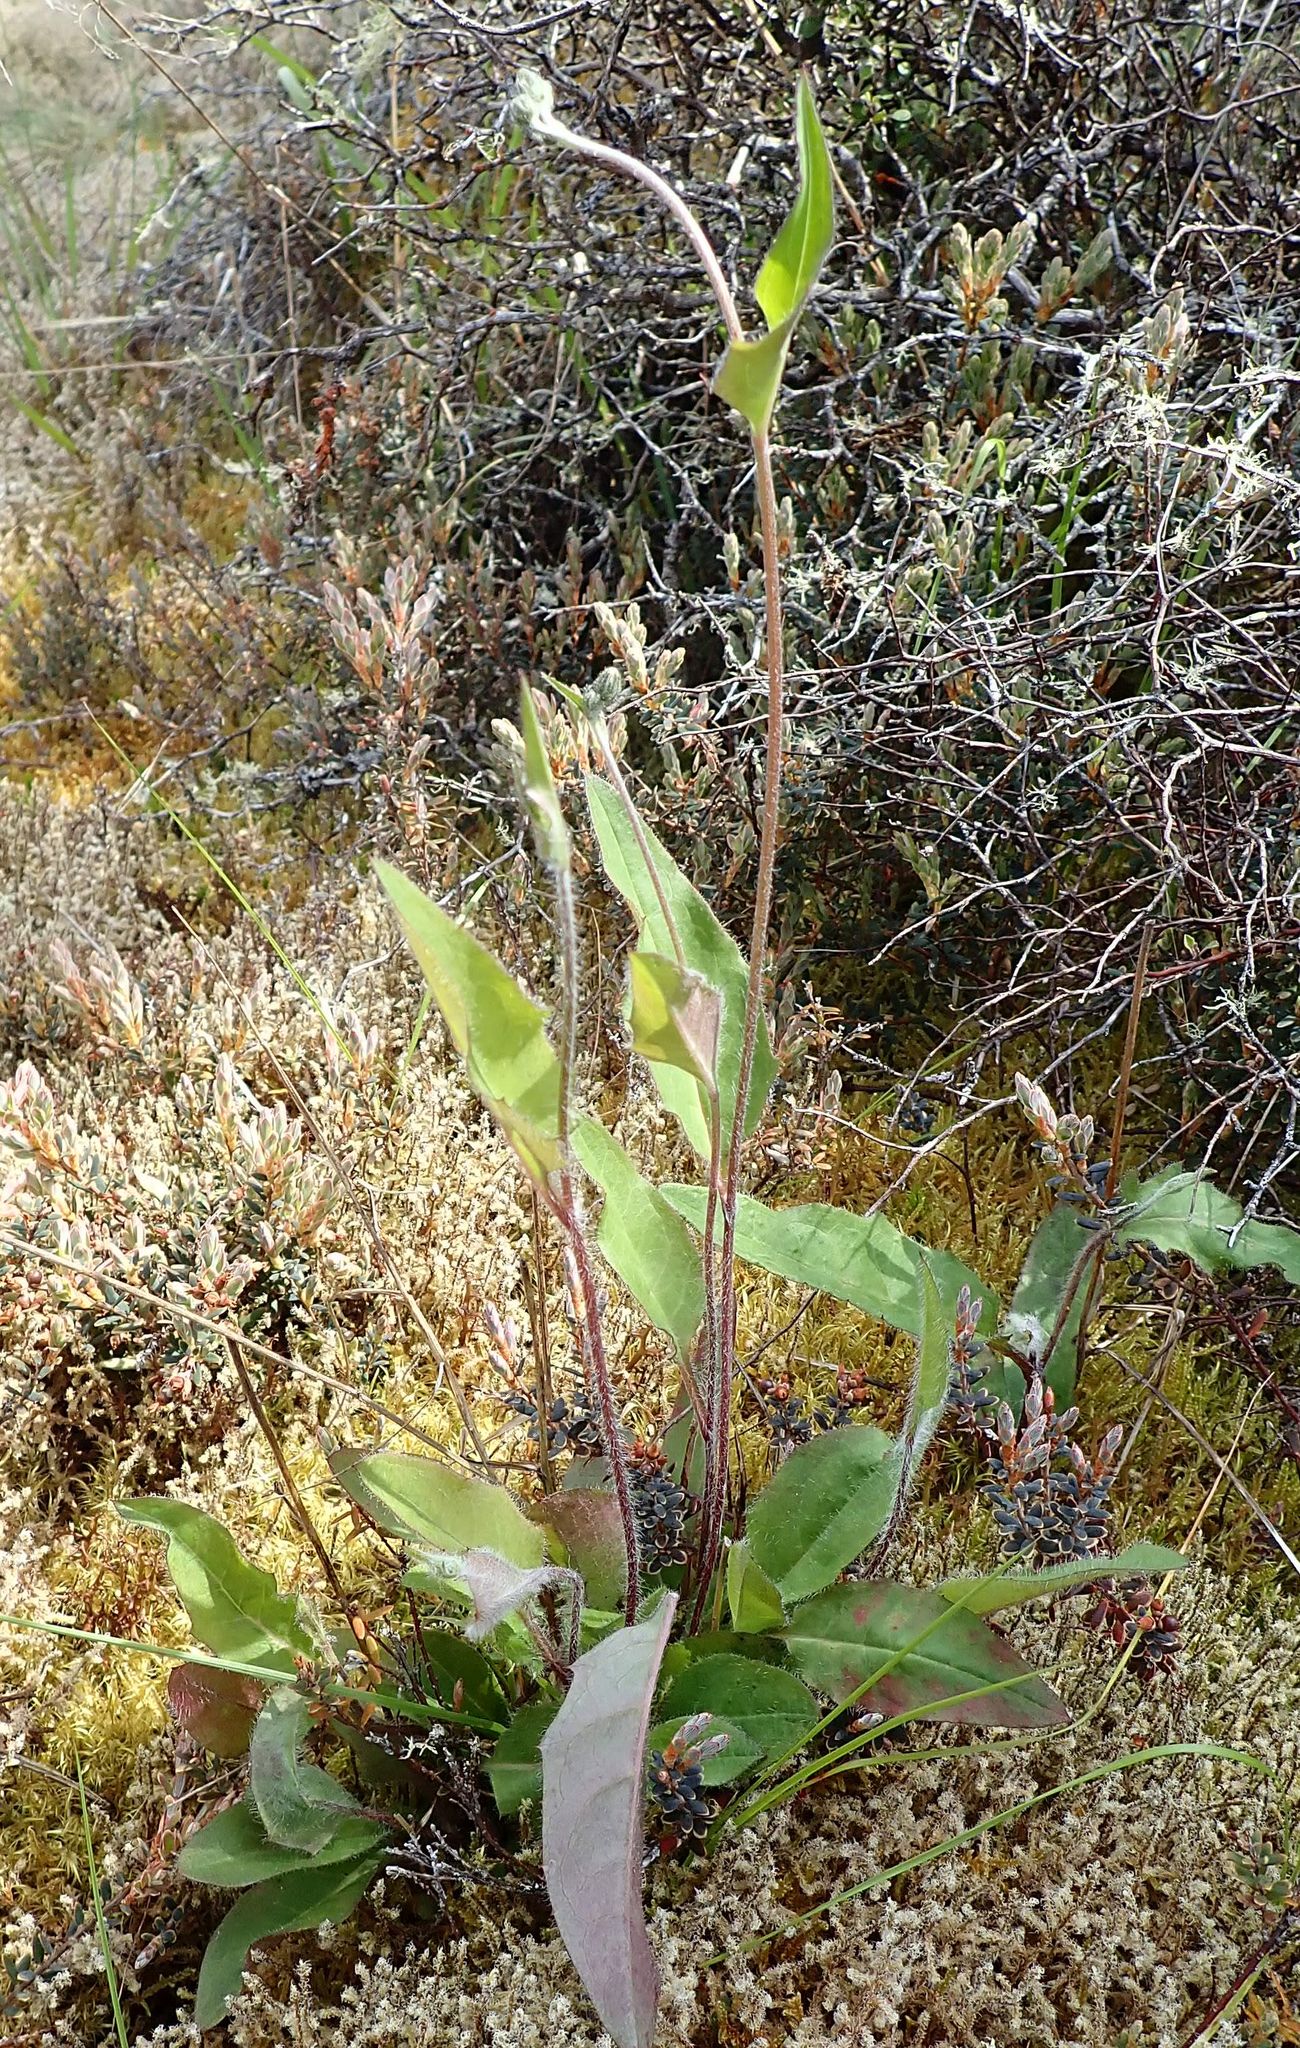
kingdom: Plantae
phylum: Tracheophyta
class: Magnoliopsida
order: Asterales
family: Asteraceae
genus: Hieracium
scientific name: Hieracium lepidulum
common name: Irregular-toothed hawkweed
